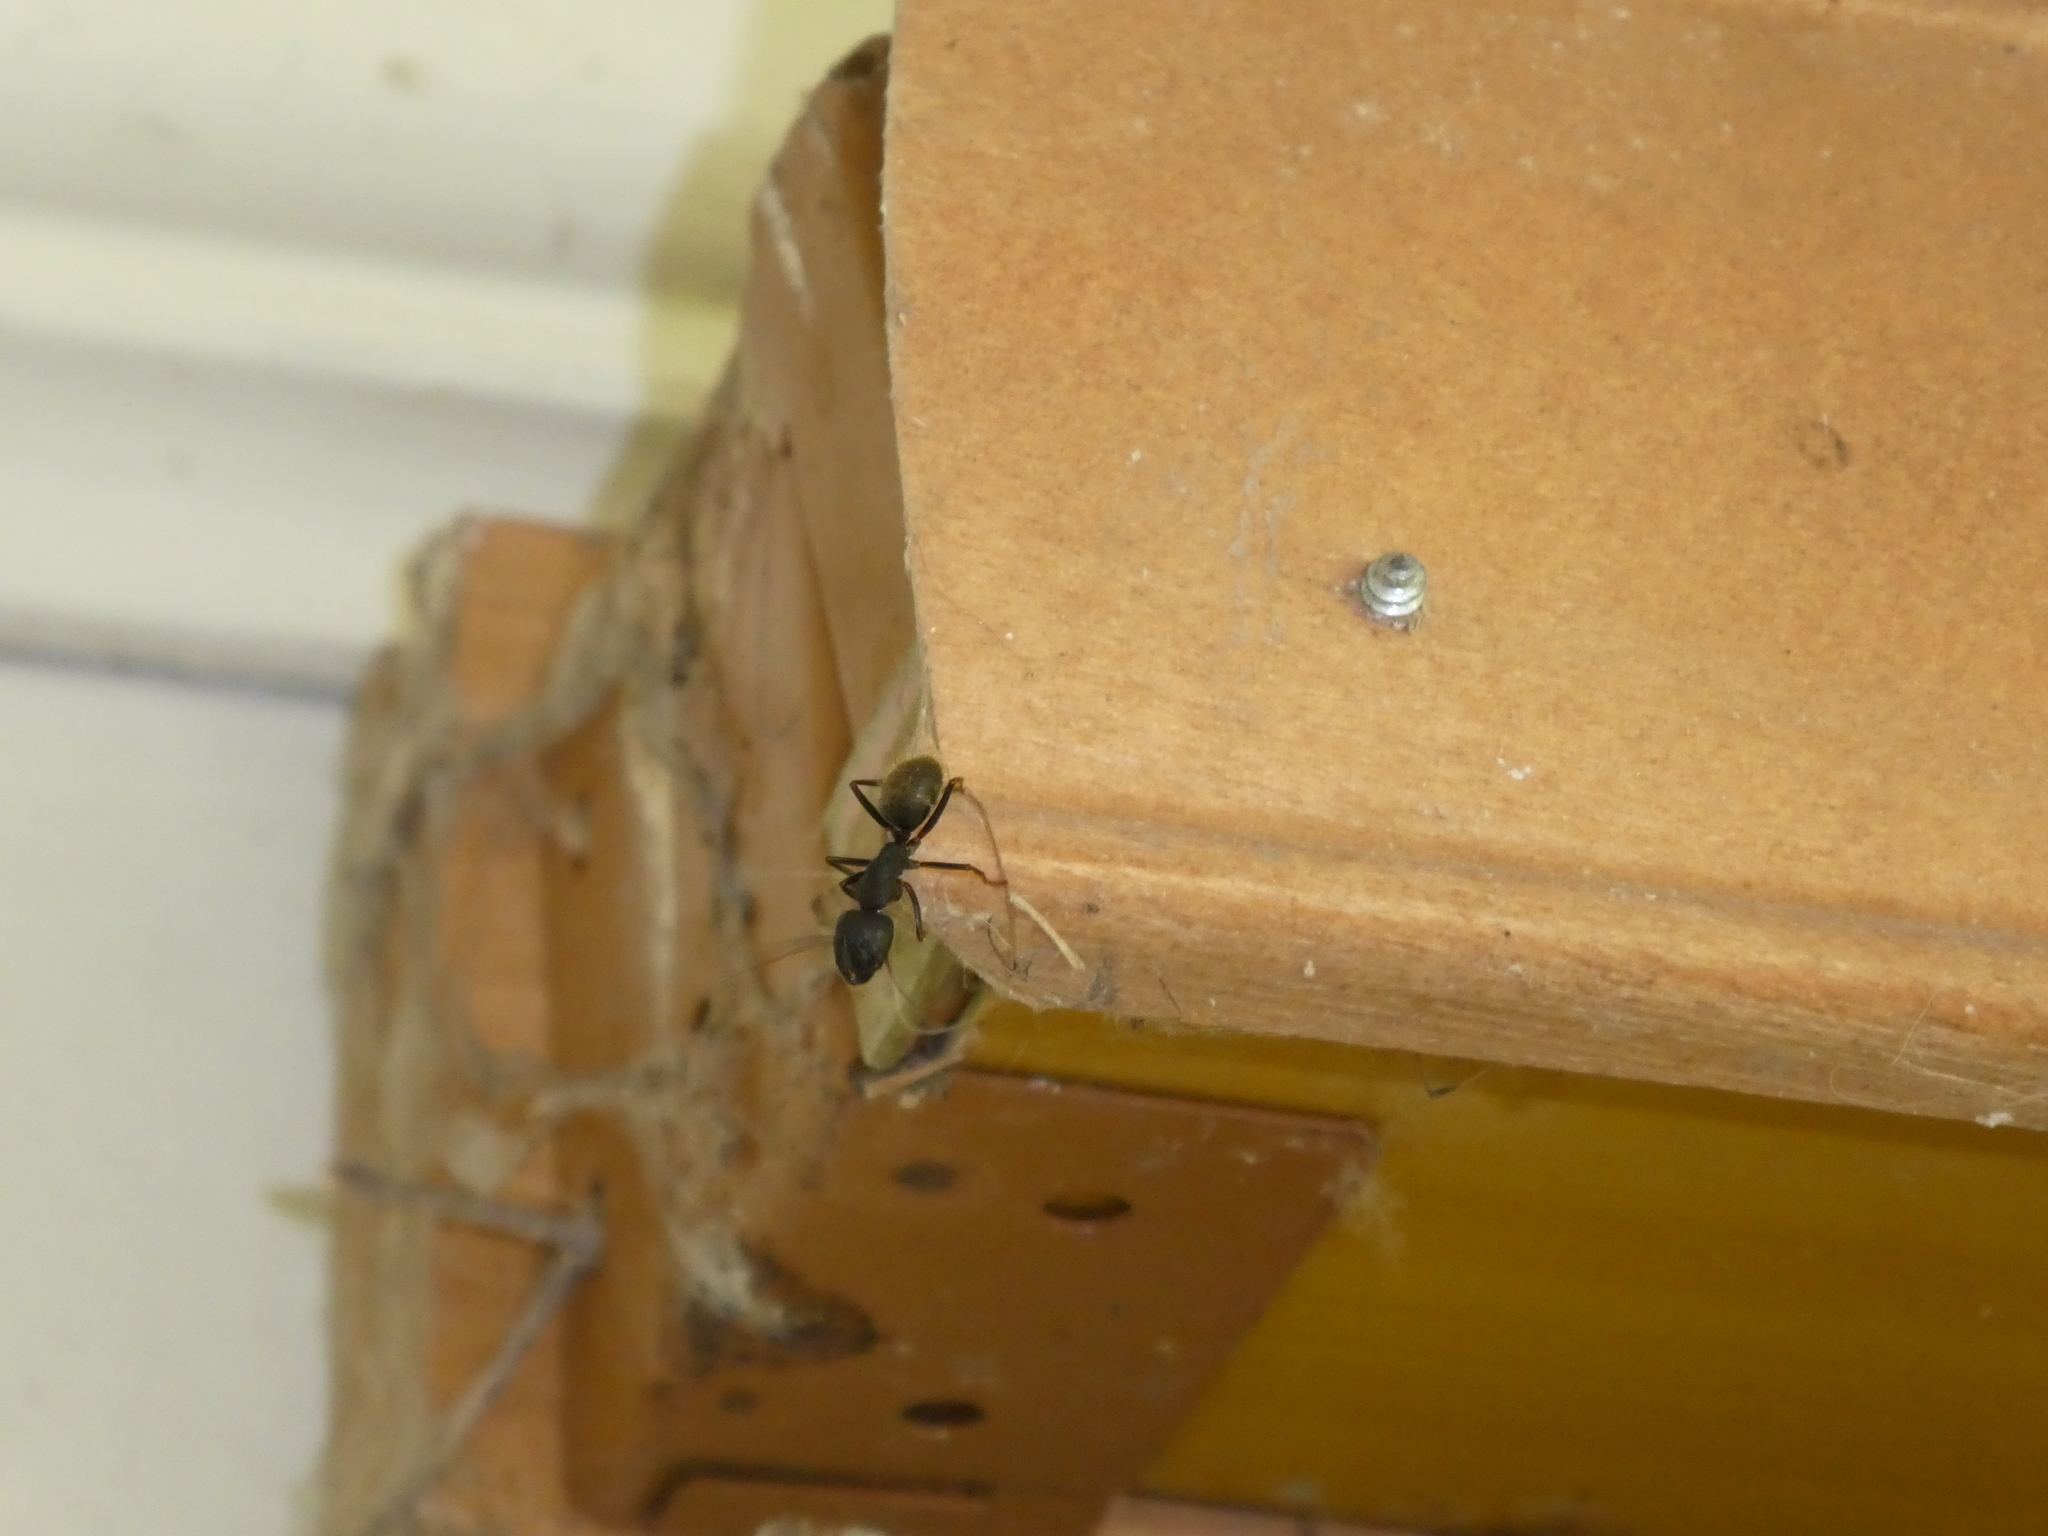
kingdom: Animalia
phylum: Arthropoda
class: Insecta
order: Hymenoptera
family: Formicidae
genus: Camponotus
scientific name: Camponotus pennsylvanicus
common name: Black carpenter ant
